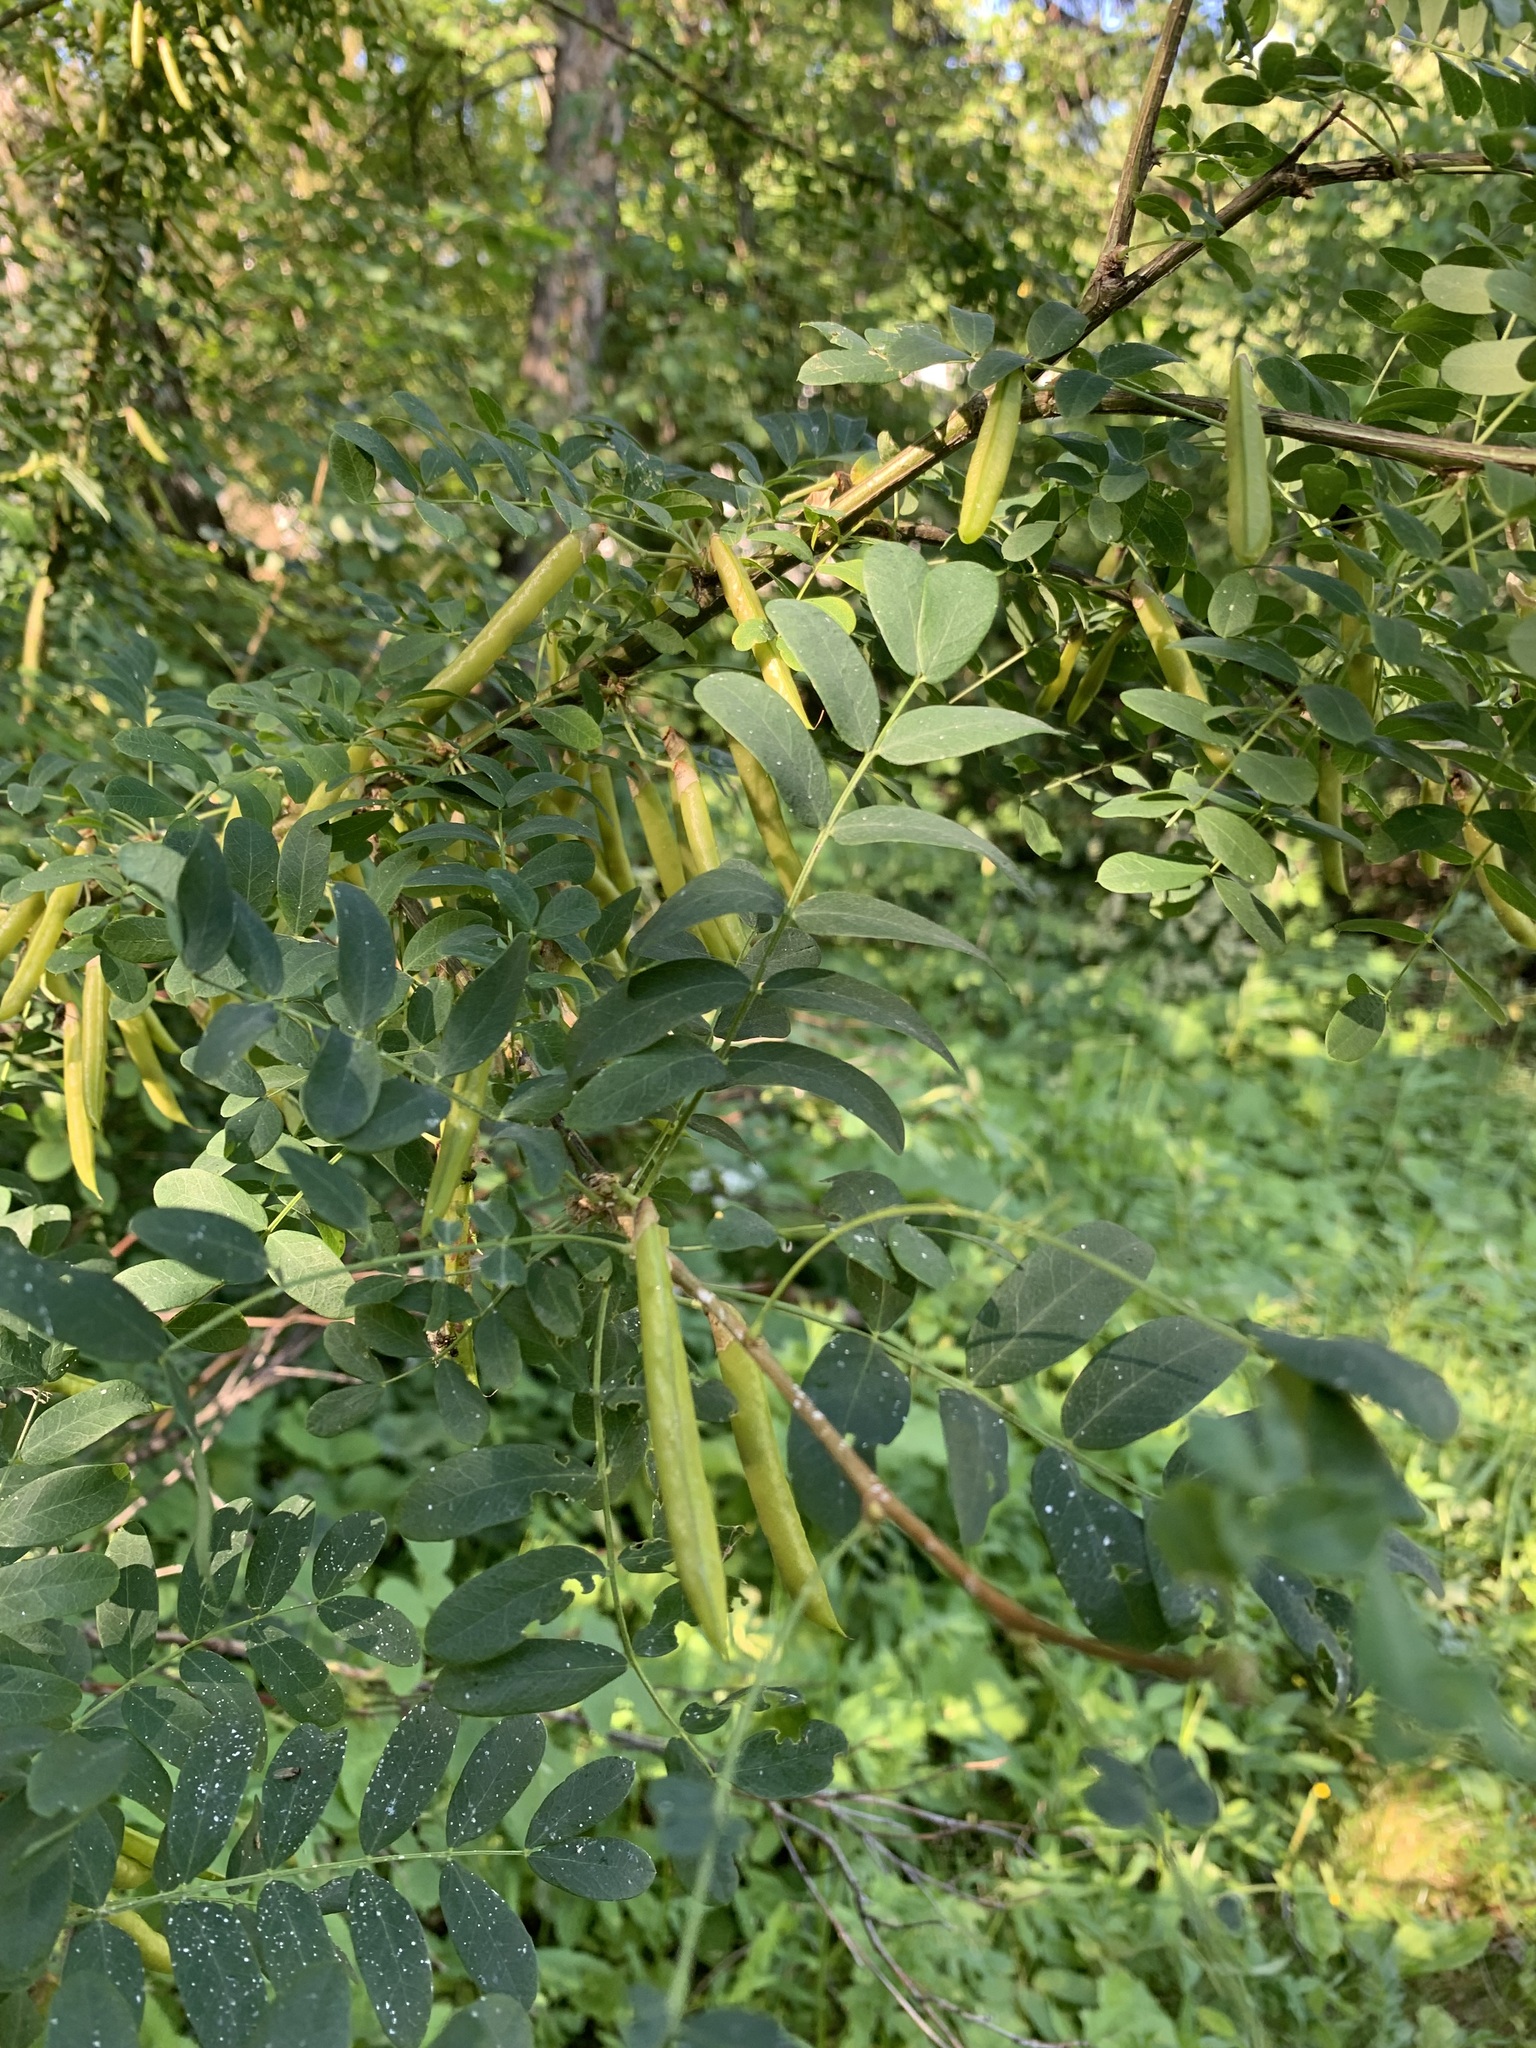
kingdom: Plantae
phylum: Tracheophyta
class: Magnoliopsida
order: Fabales
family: Fabaceae
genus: Caragana
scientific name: Caragana arborescens
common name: Siberian peashrub
